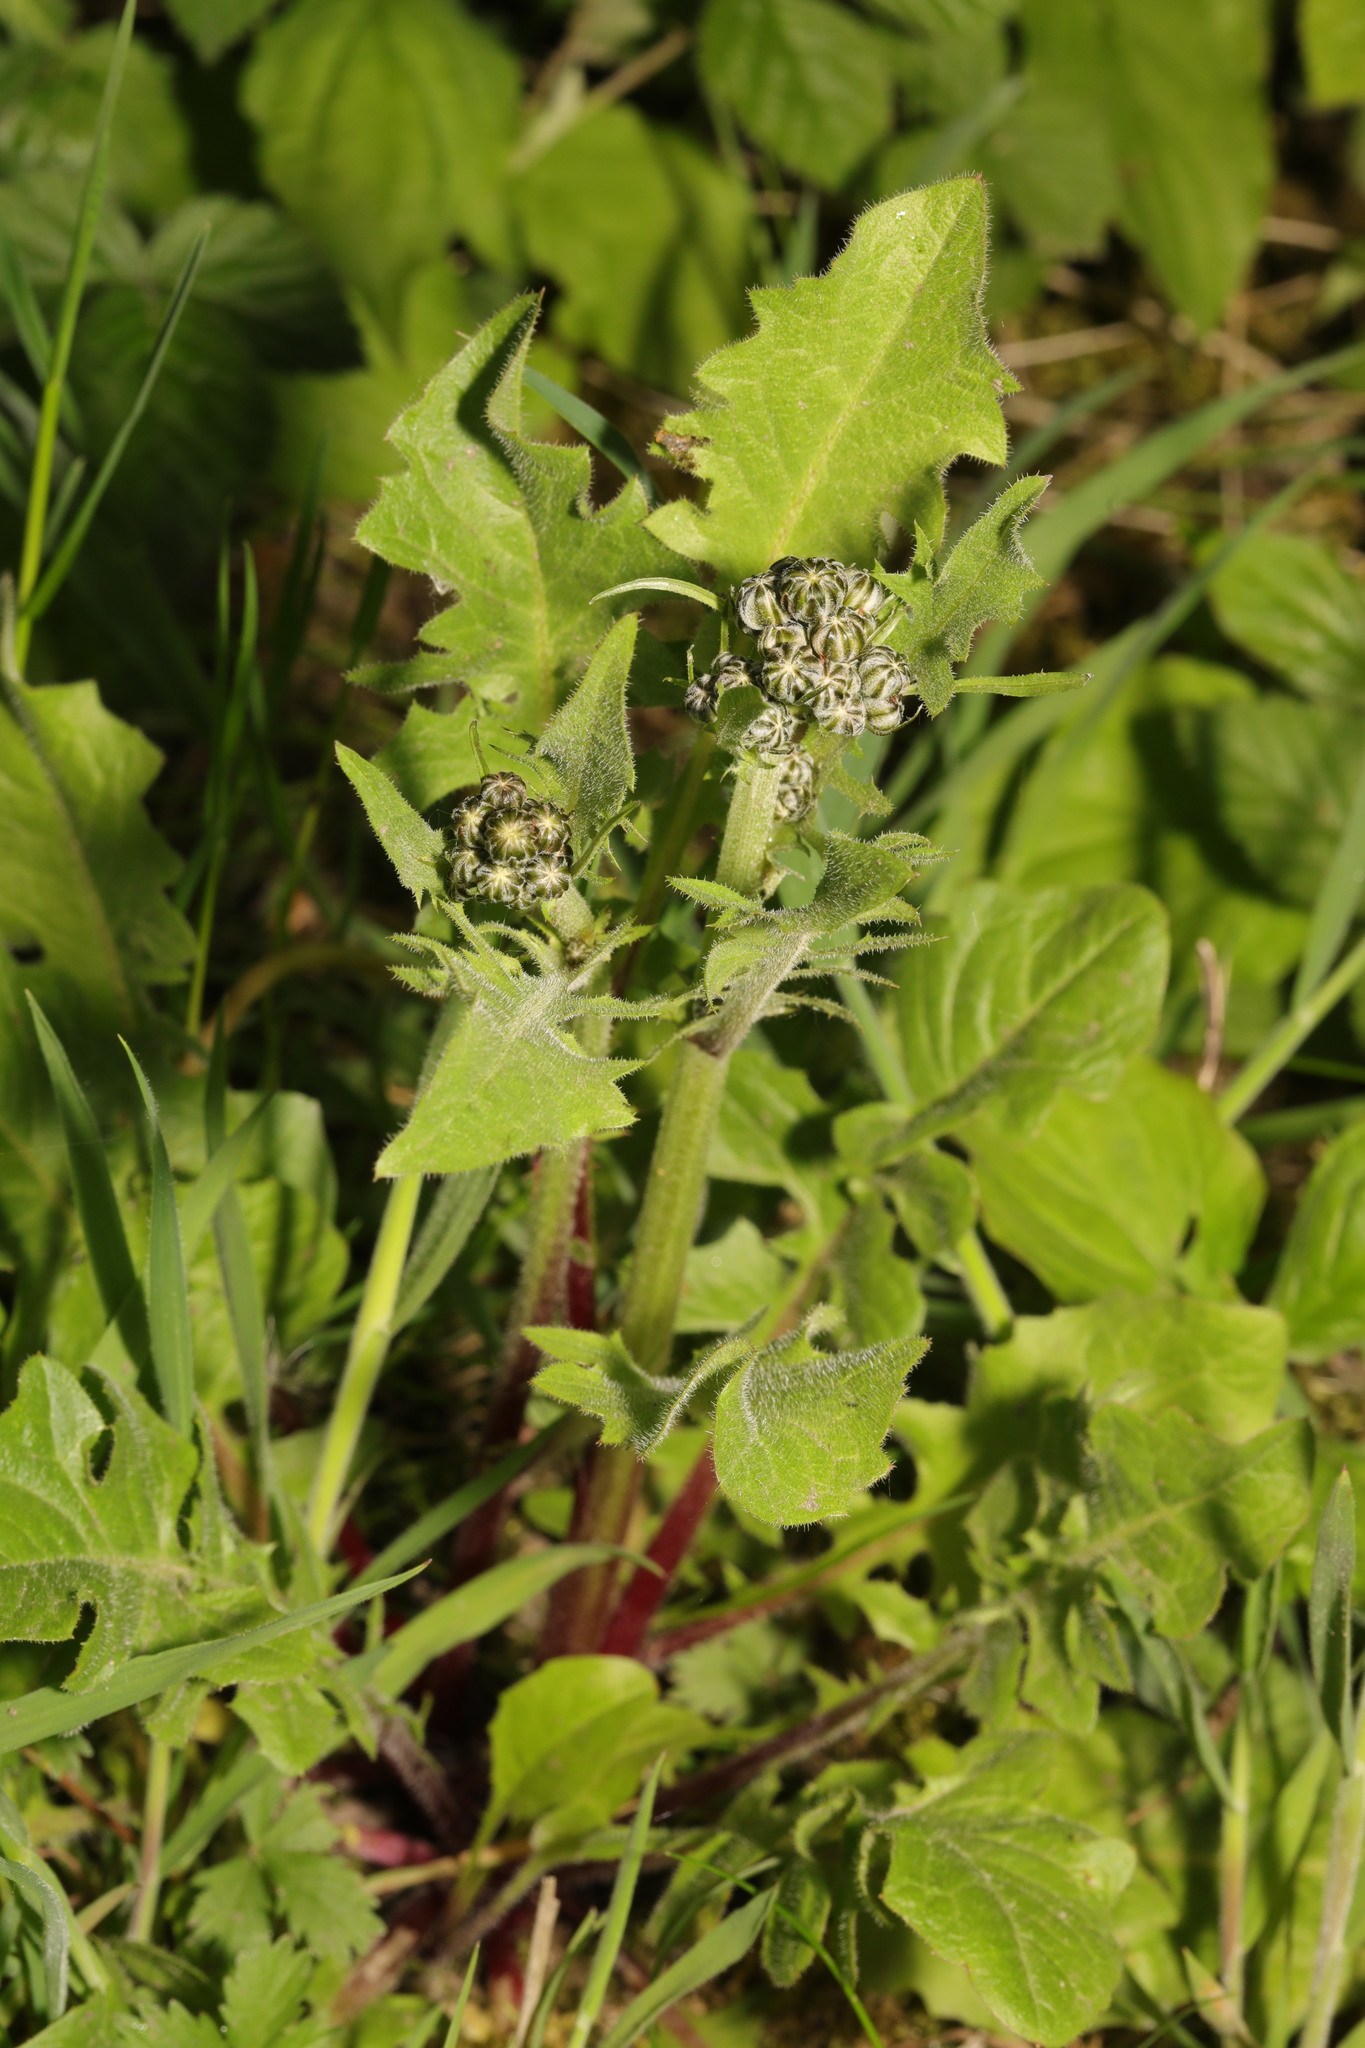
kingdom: Plantae
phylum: Tracheophyta
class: Magnoliopsida
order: Asterales
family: Asteraceae
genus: Crepis
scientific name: Crepis vesicaria
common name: Beaked hawksbeard
